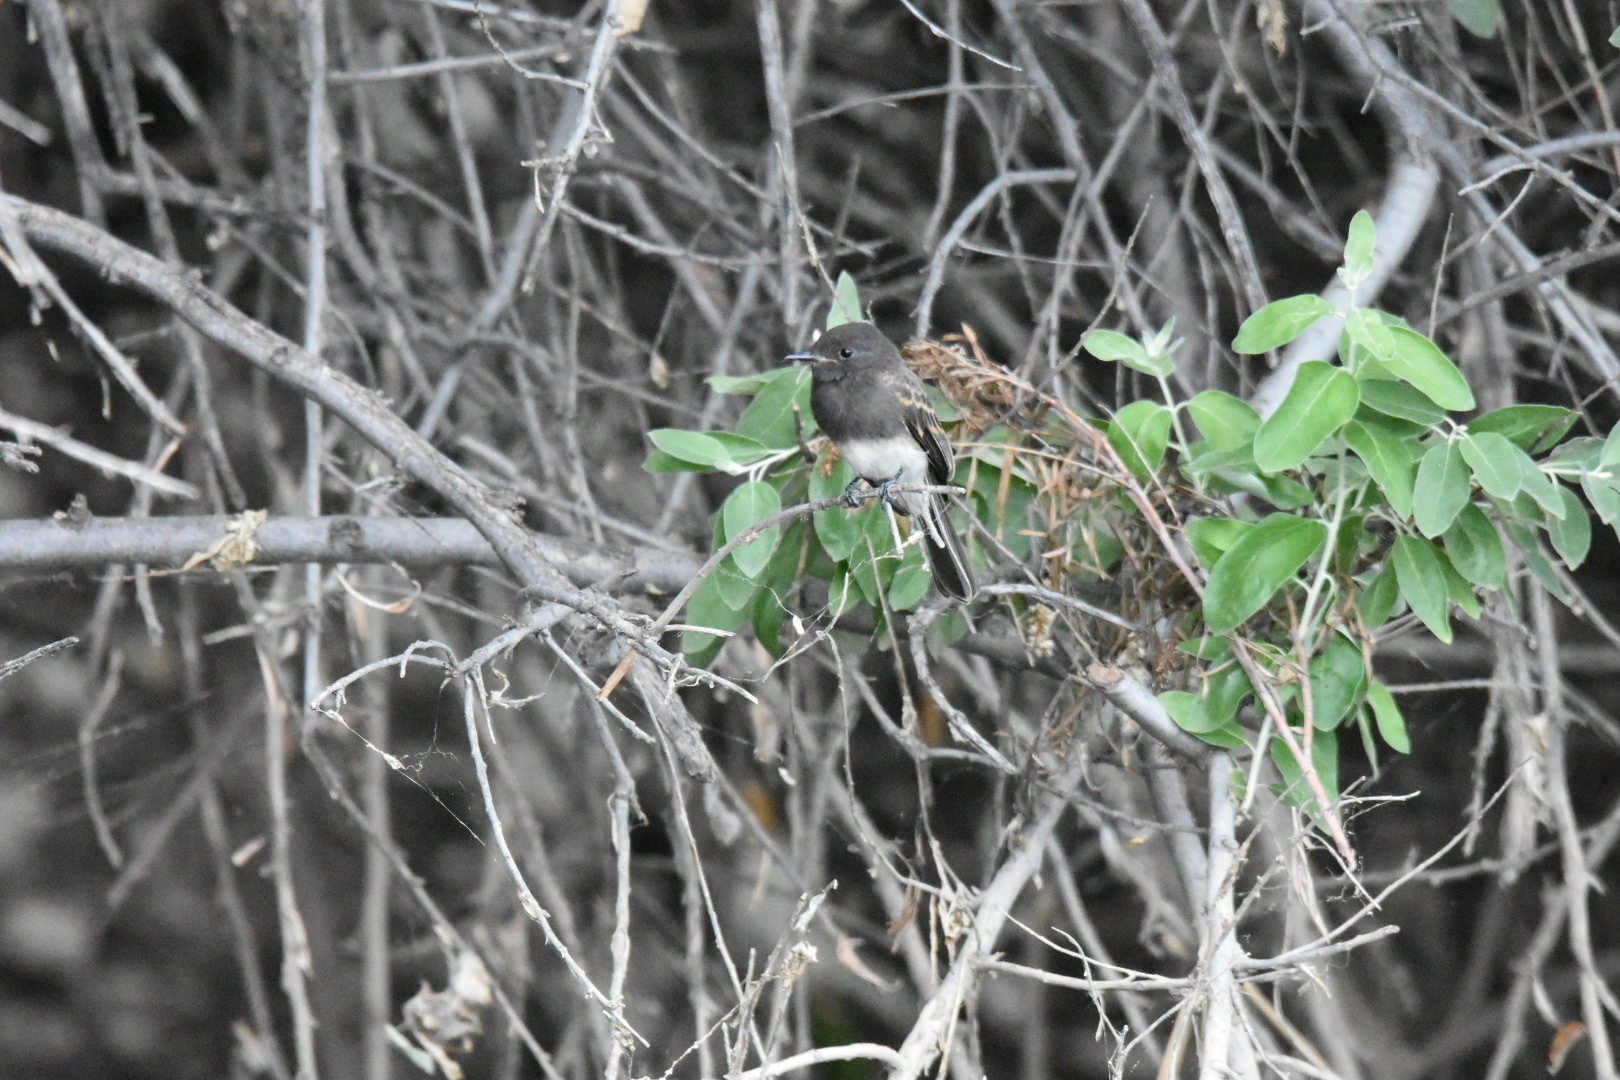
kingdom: Animalia
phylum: Chordata
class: Aves
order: Passeriformes
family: Tyrannidae
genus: Sayornis
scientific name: Sayornis nigricans
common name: Black phoebe
